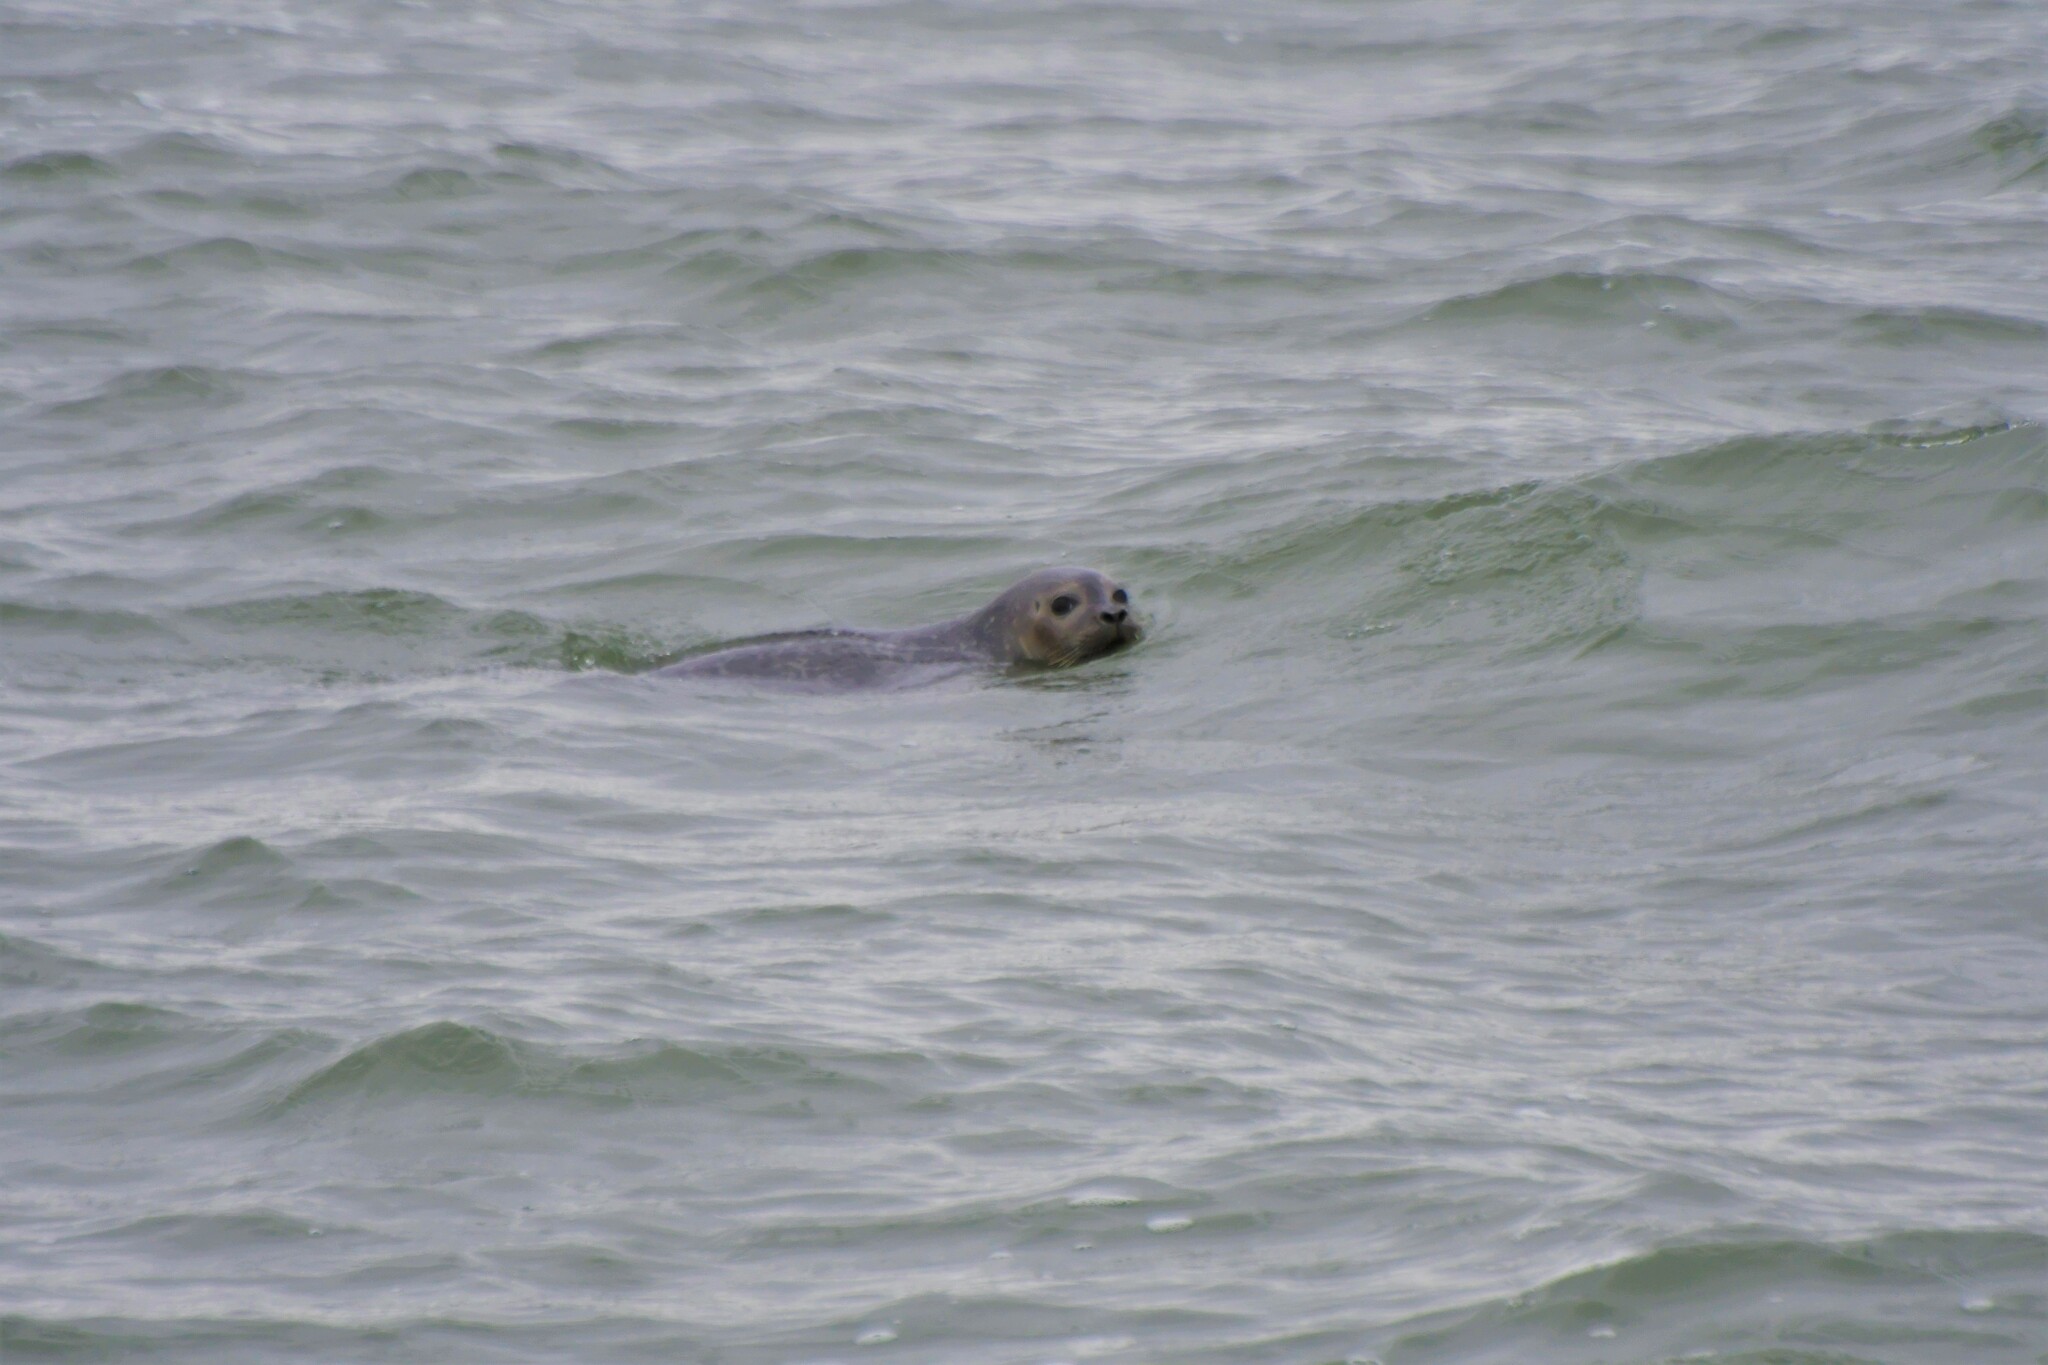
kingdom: Animalia
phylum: Chordata
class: Mammalia
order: Carnivora
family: Phocidae
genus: Phoca
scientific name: Phoca vitulina
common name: Harbor seal
